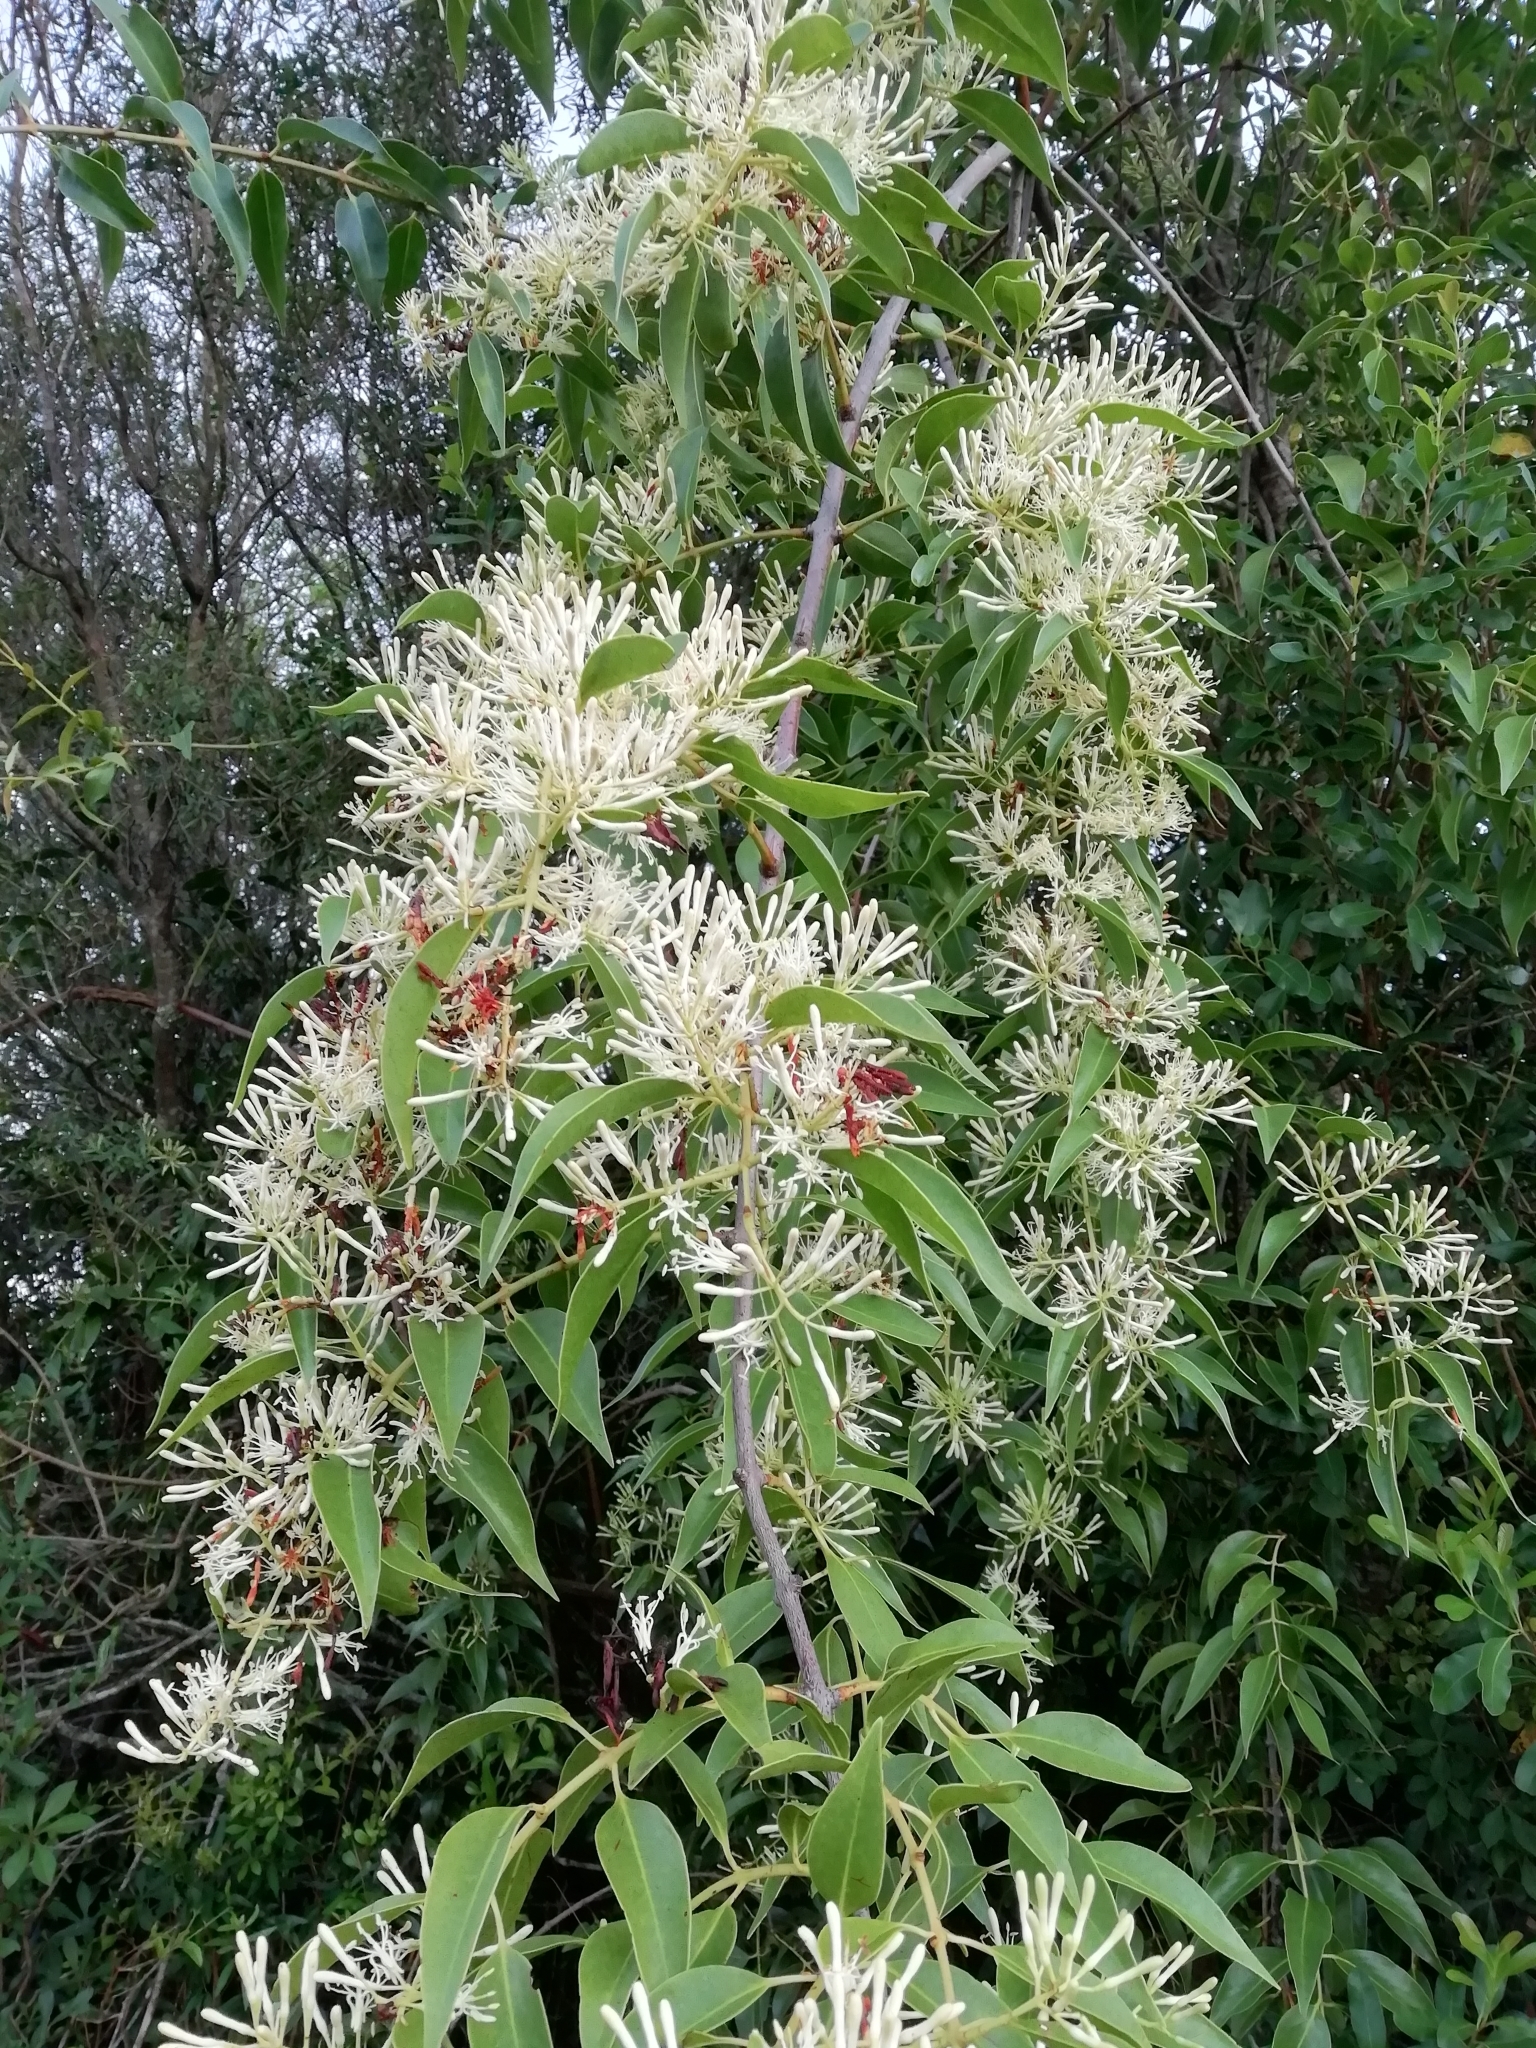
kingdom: Plantae
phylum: Tracheophyta
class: Magnoliopsida
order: Santalales
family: Loranthaceae
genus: Tripodanthus
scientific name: Tripodanthus acutifolius
